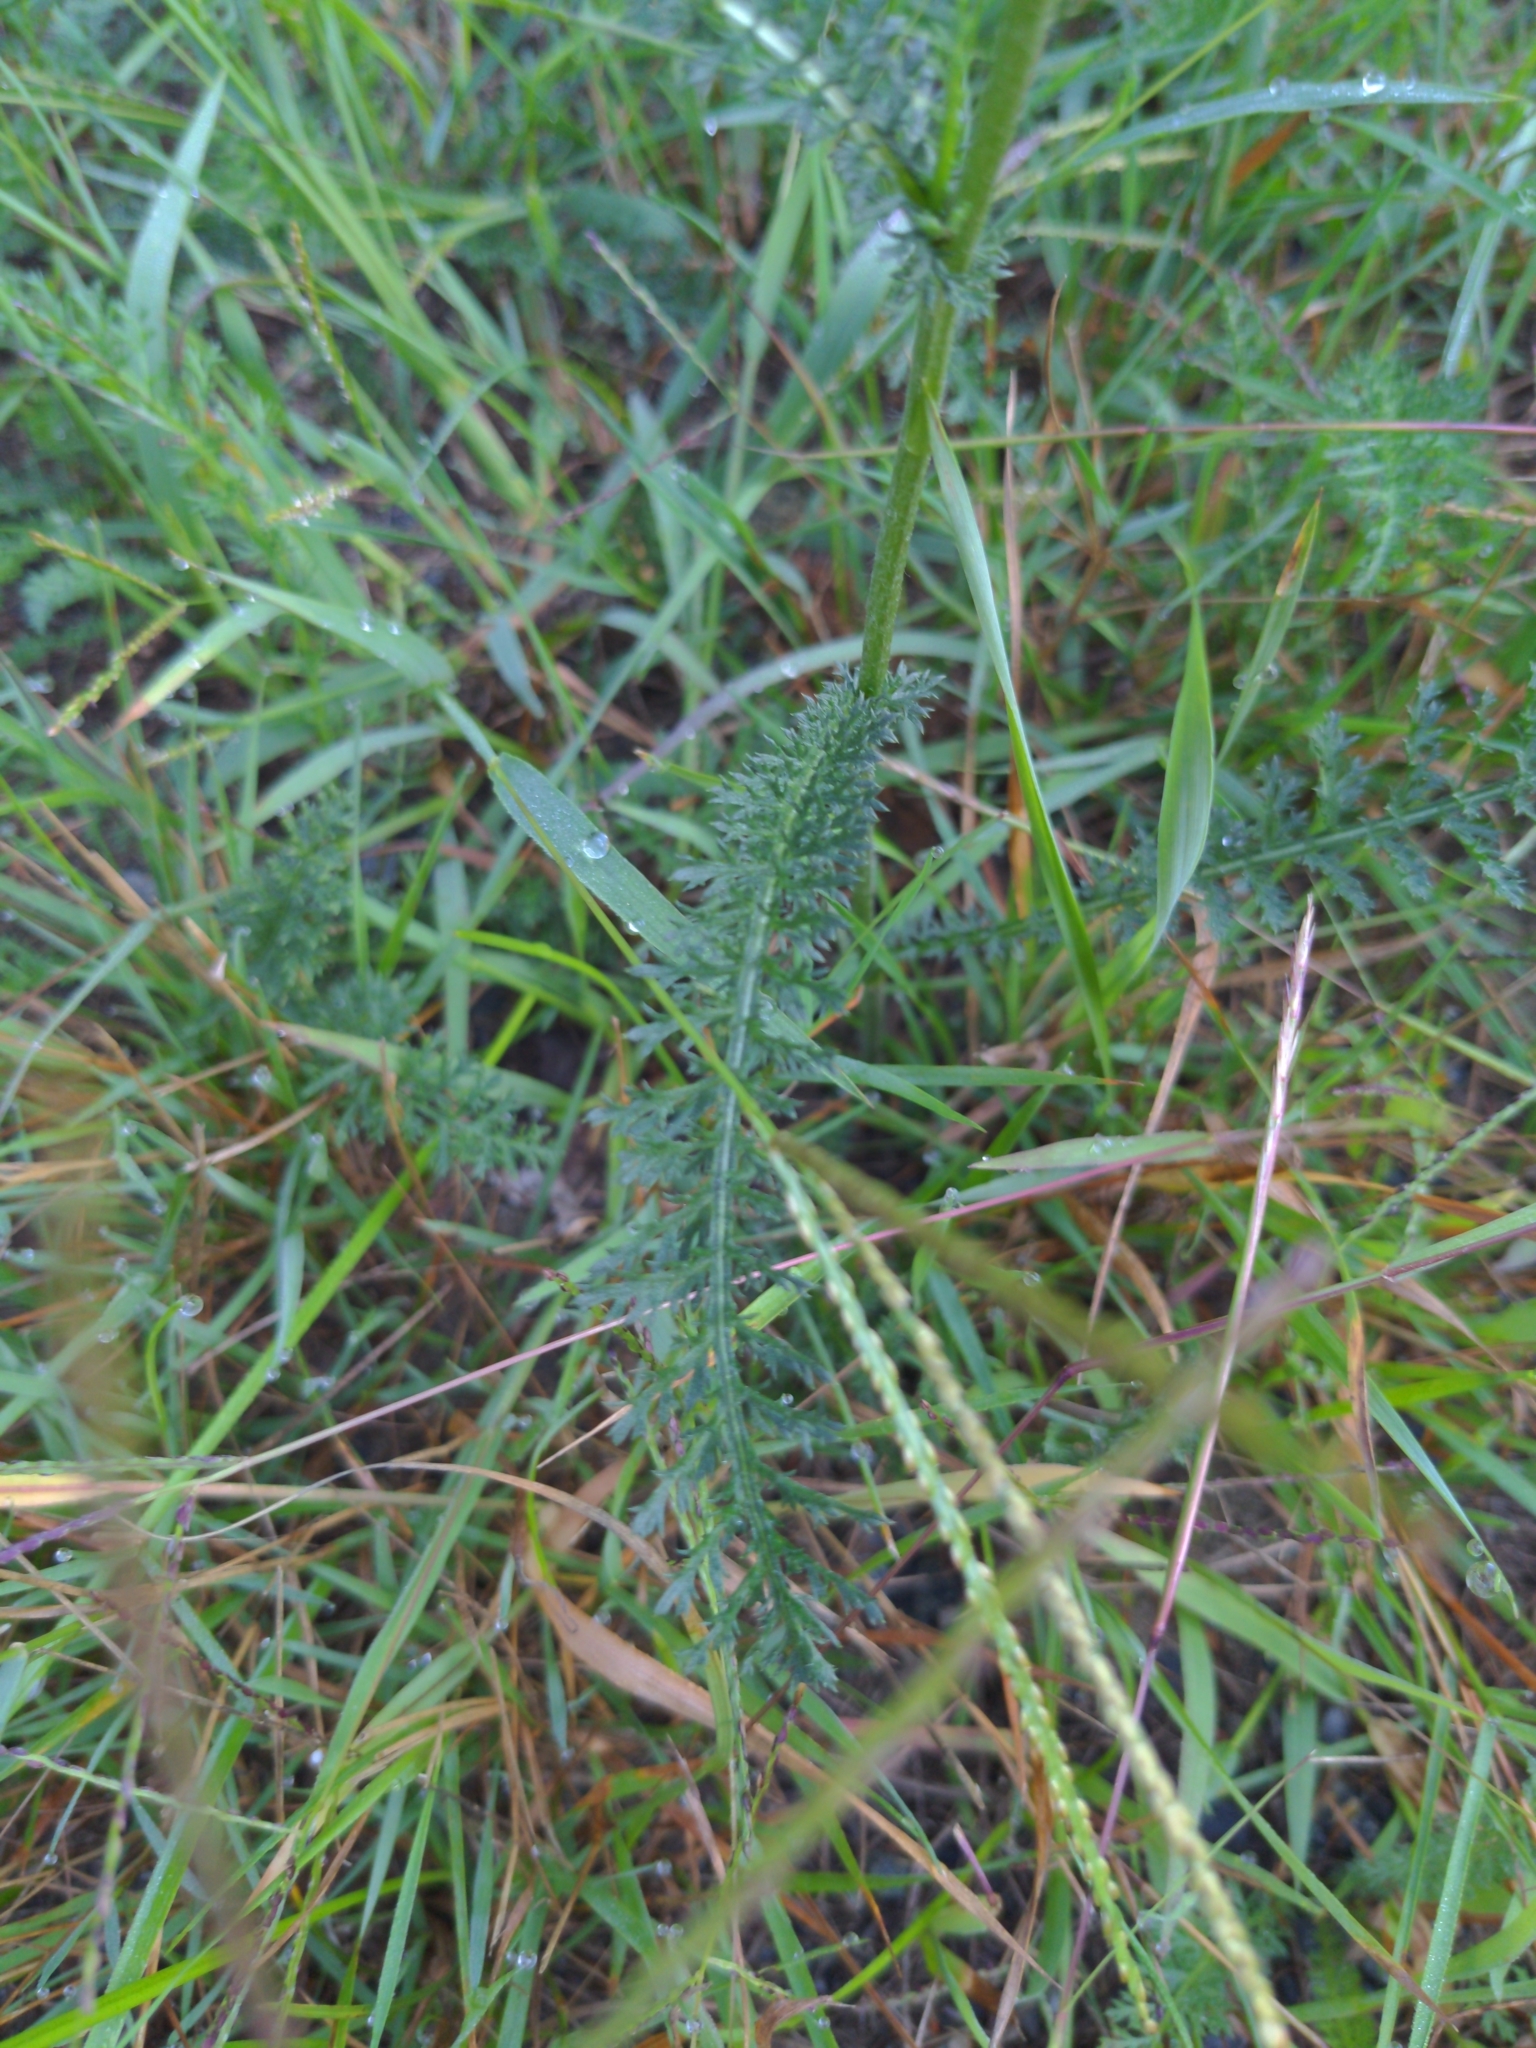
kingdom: Plantae
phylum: Tracheophyta
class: Magnoliopsida
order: Asterales
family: Asteraceae
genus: Achillea
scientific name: Achillea millefolium
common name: Yarrow
